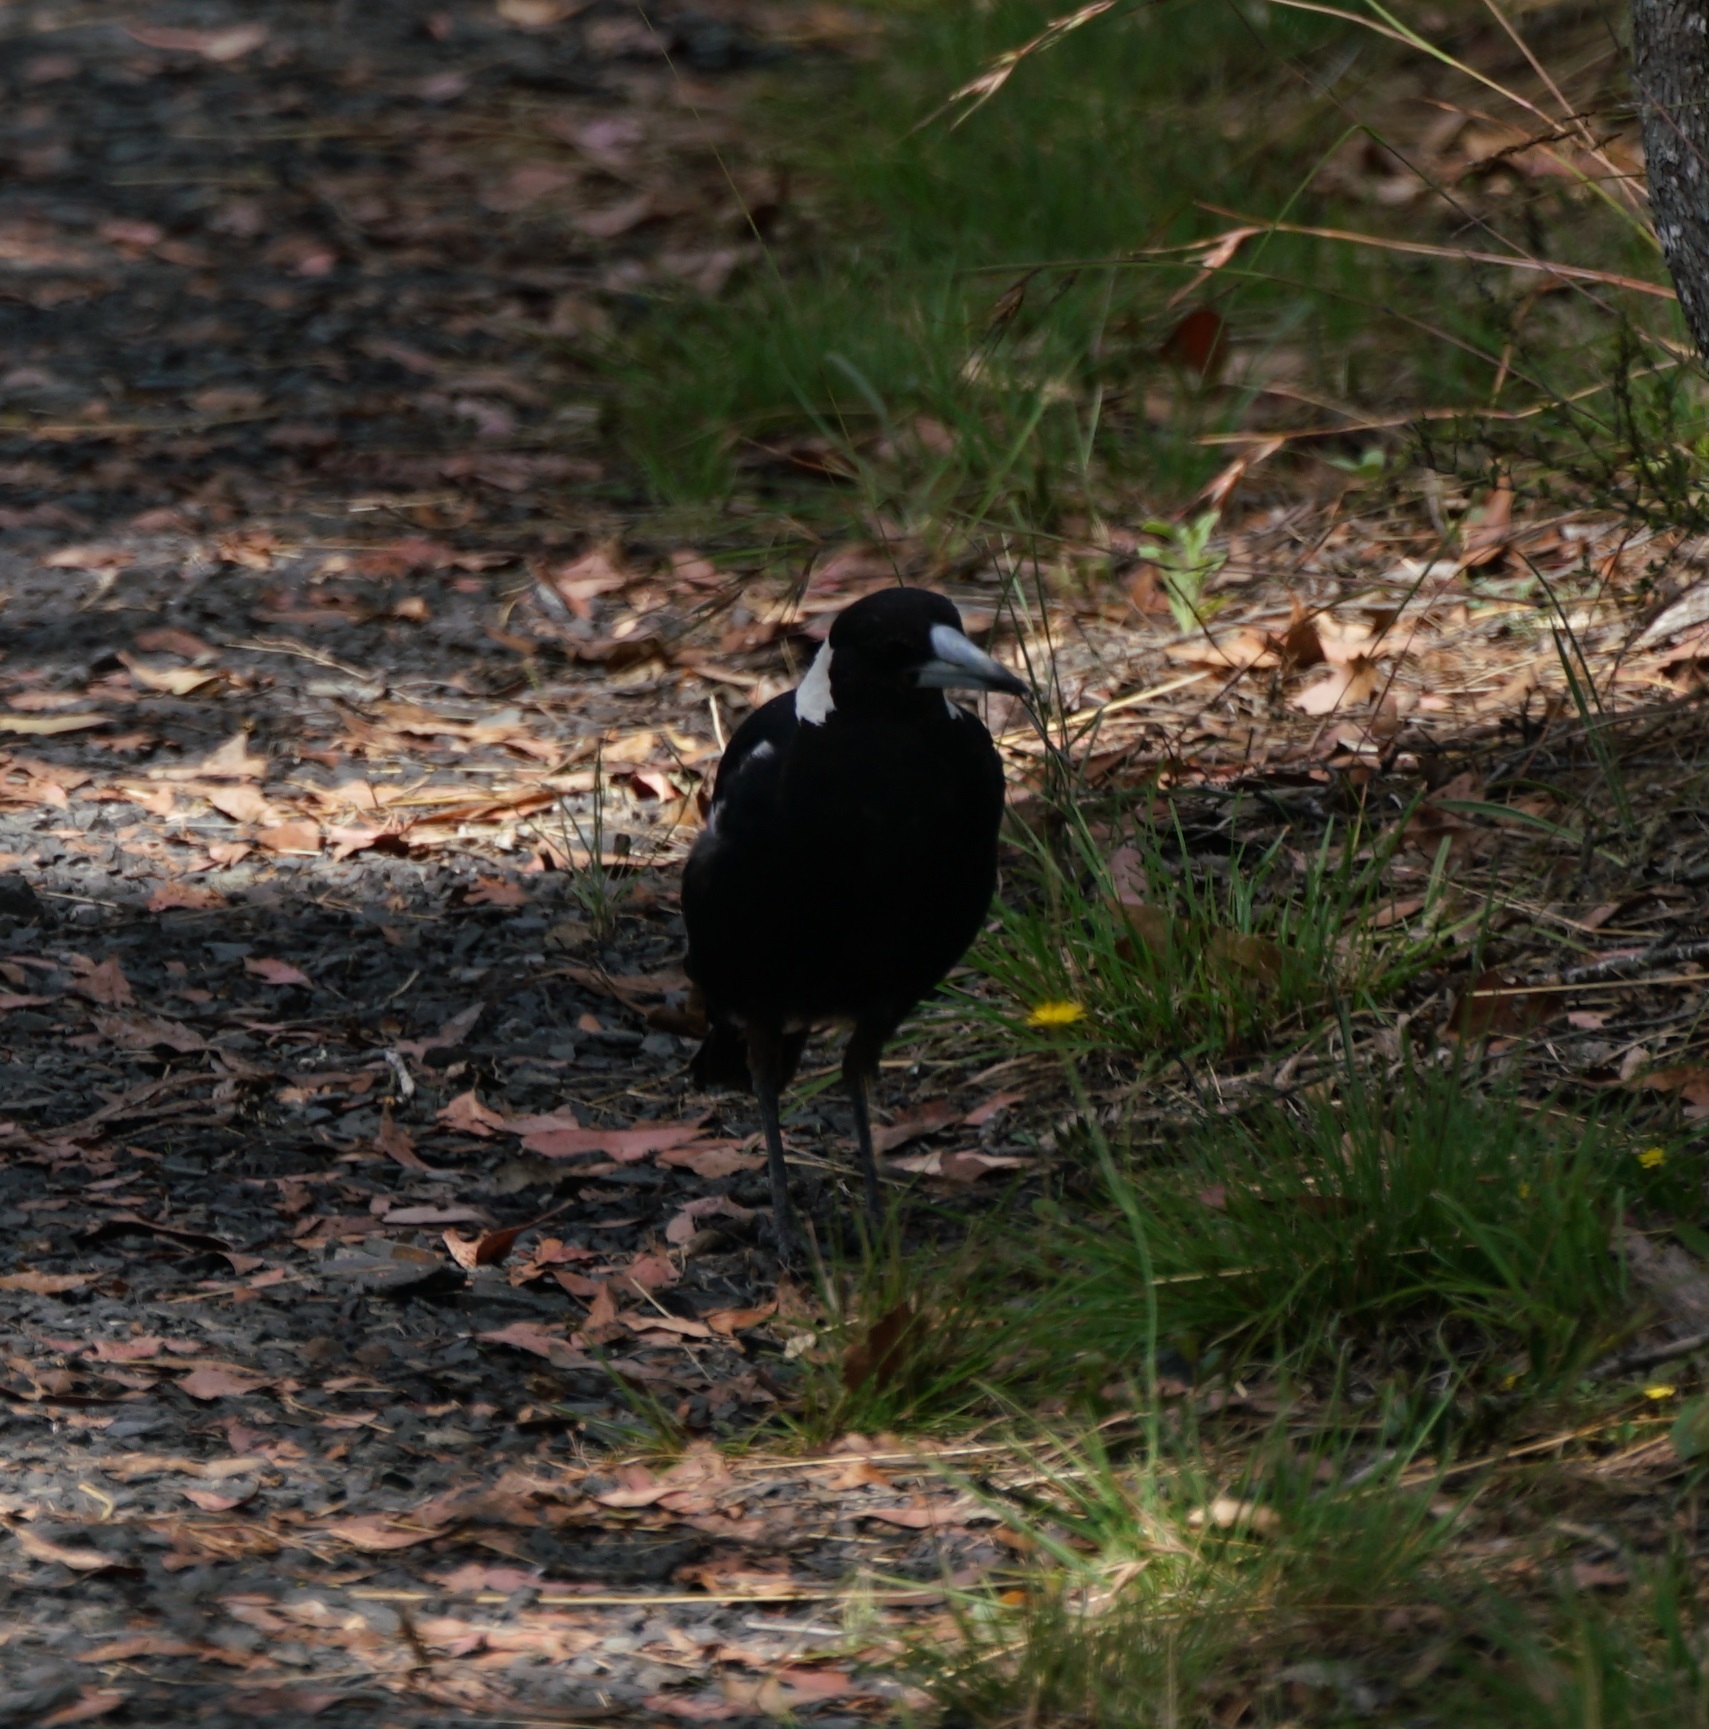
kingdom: Animalia
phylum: Chordata
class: Aves
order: Passeriformes
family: Cracticidae
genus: Gymnorhina
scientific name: Gymnorhina tibicen
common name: Australian magpie
